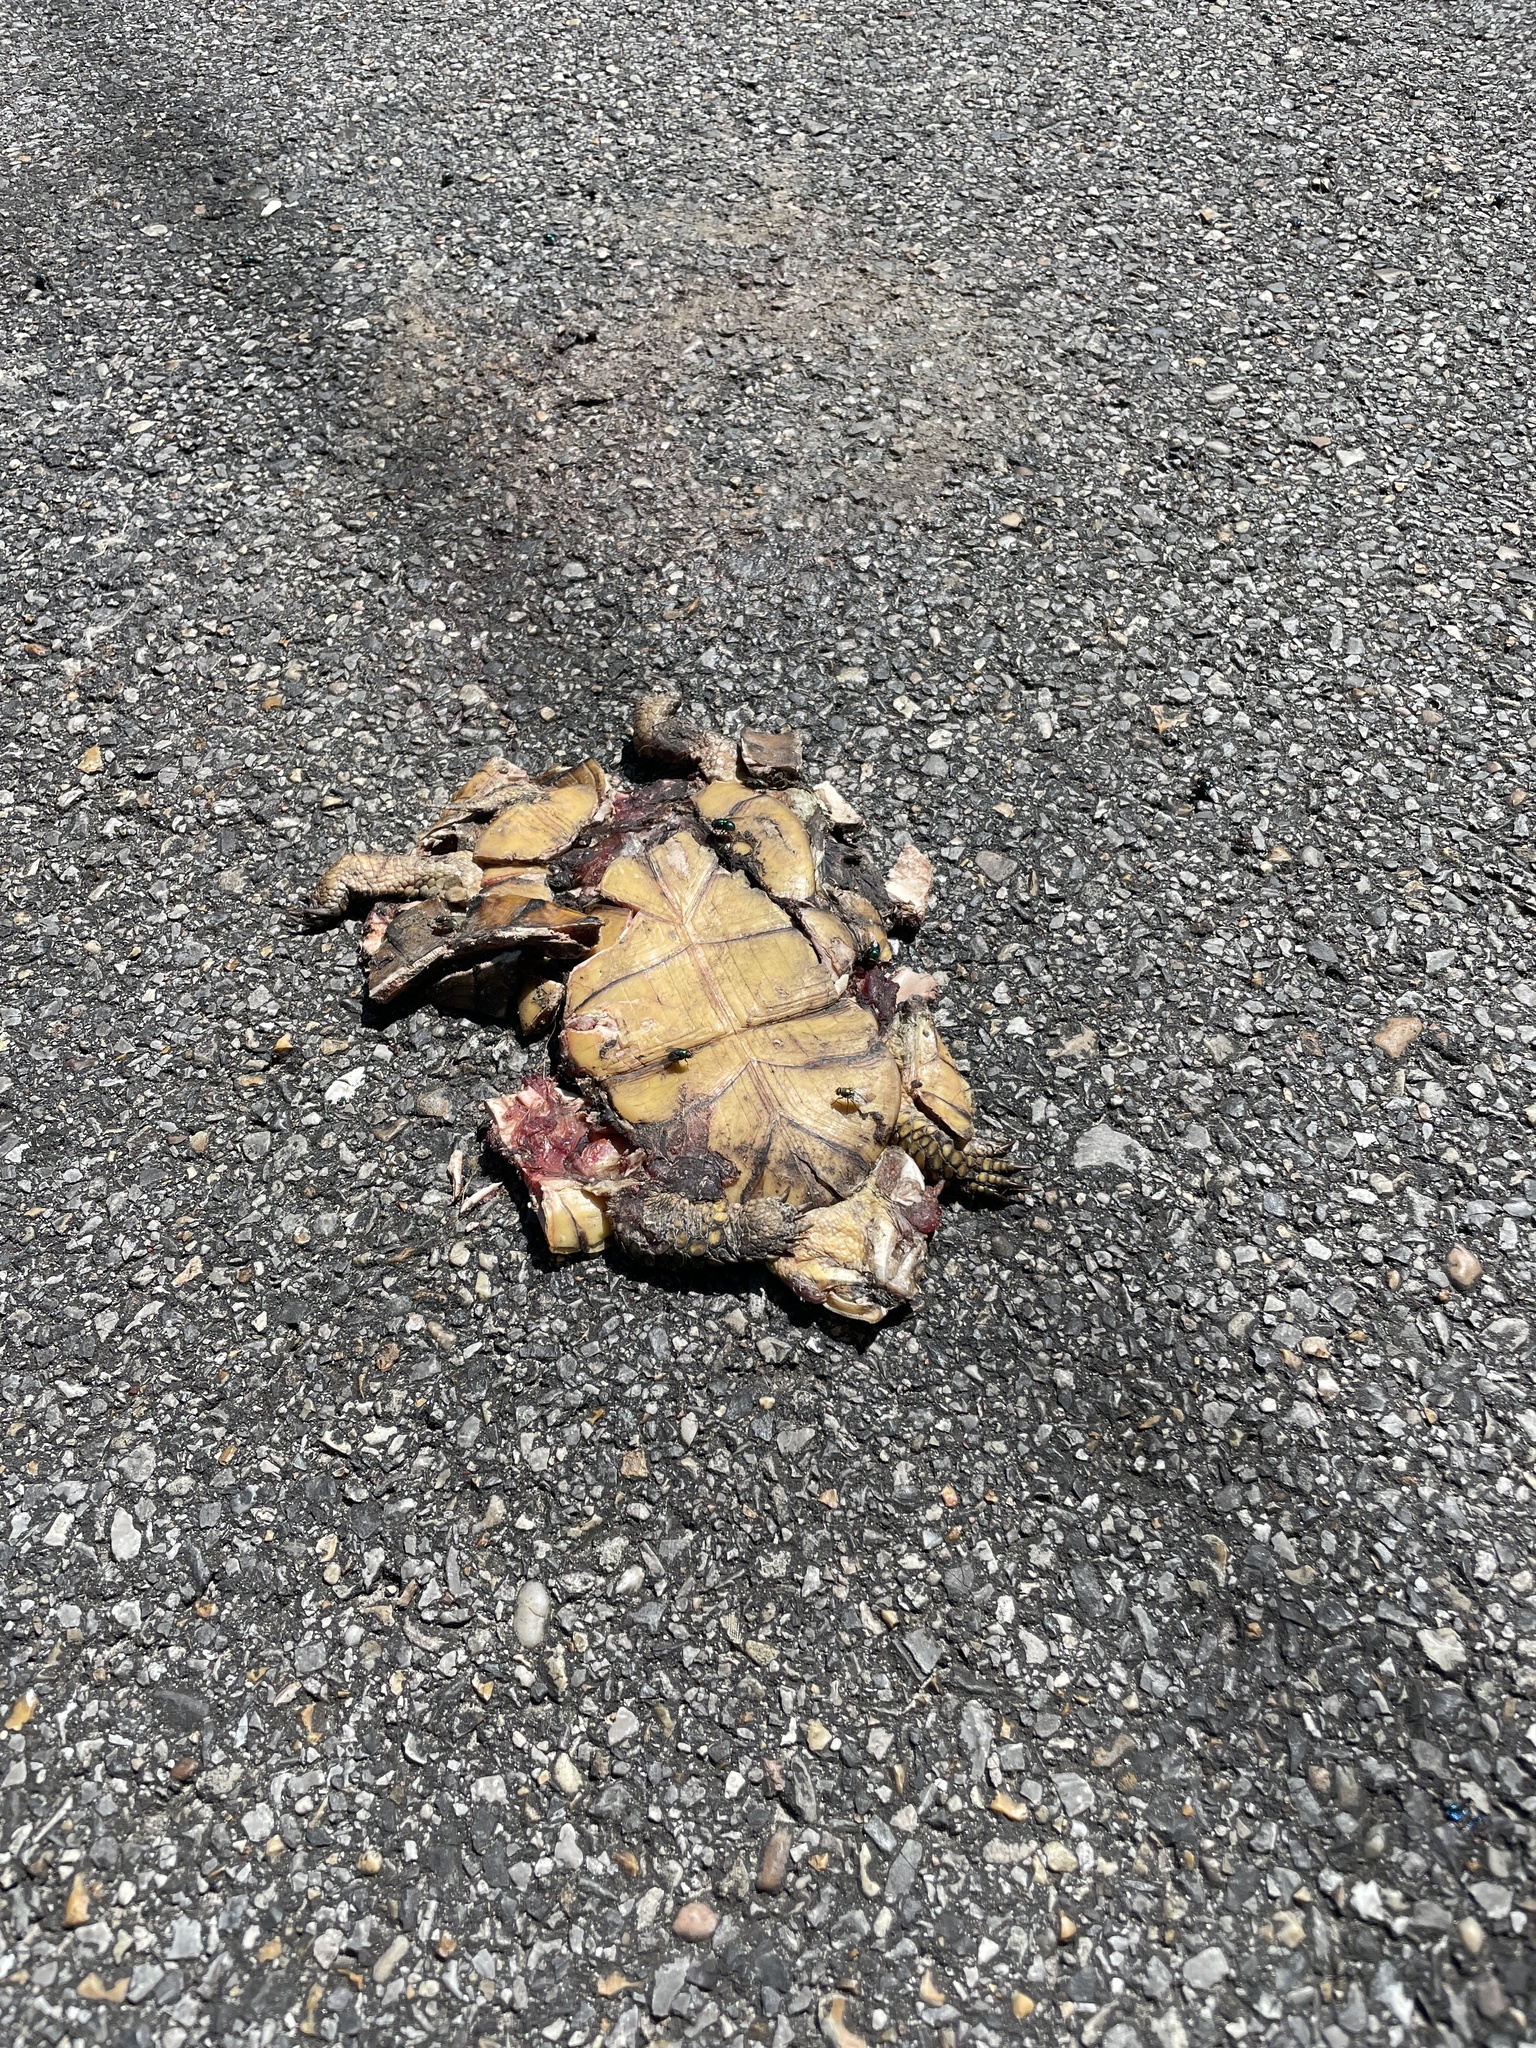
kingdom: Animalia
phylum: Chordata
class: Testudines
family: Emydidae
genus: Terrapene
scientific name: Terrapene carolina
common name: Common box turtle
